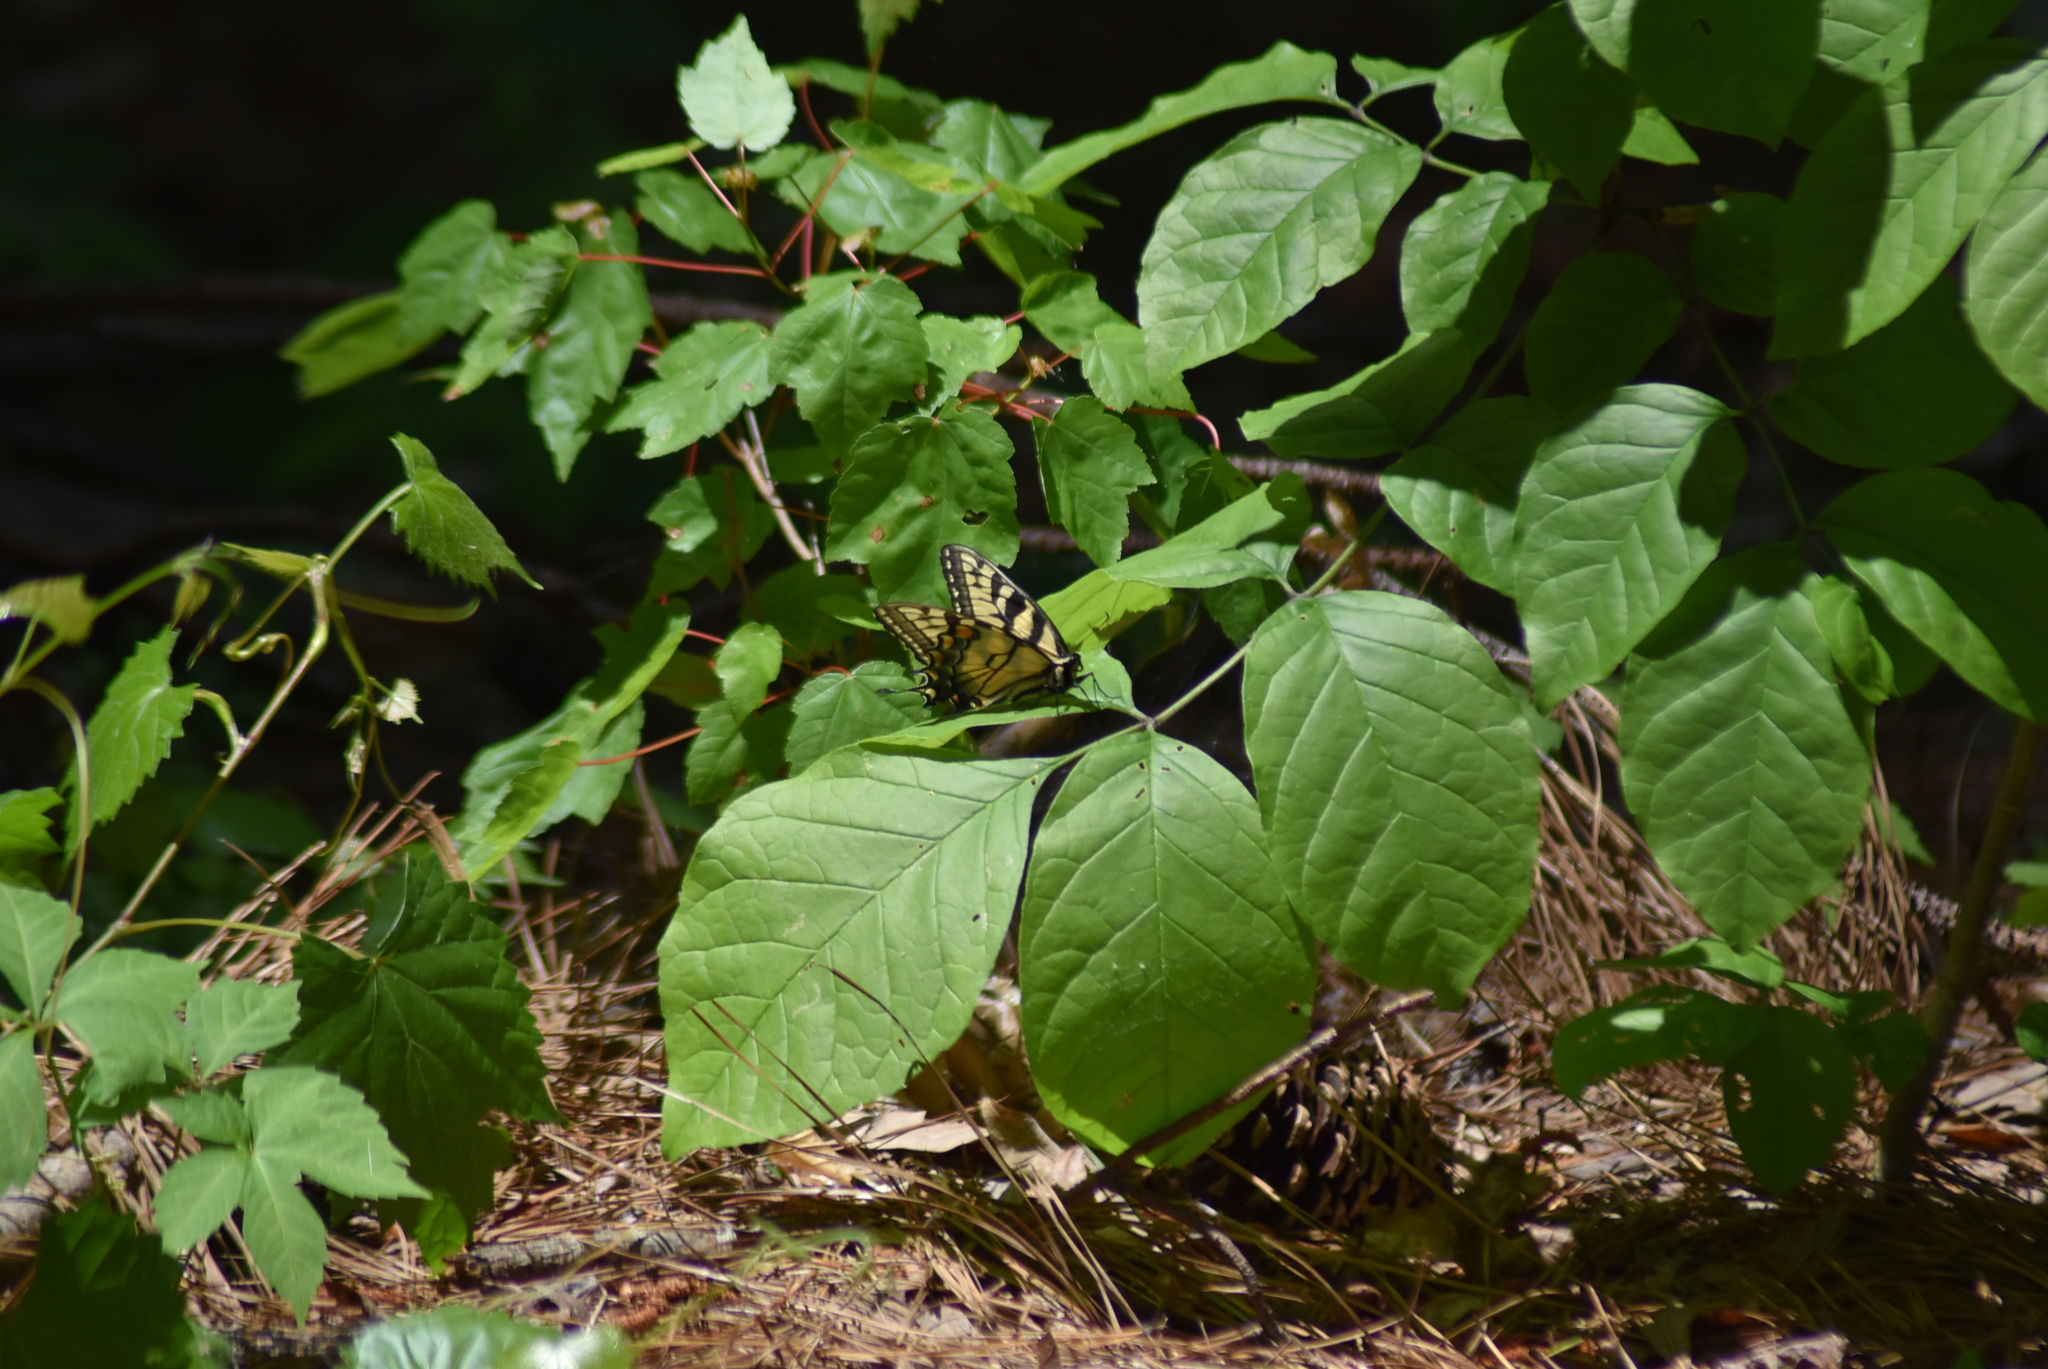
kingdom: Animalia
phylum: Arthropoda
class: Insecta
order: Lepidoptera
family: Papilionidae
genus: Papilio
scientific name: Papilio glaucus
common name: Tiger swallowtail
